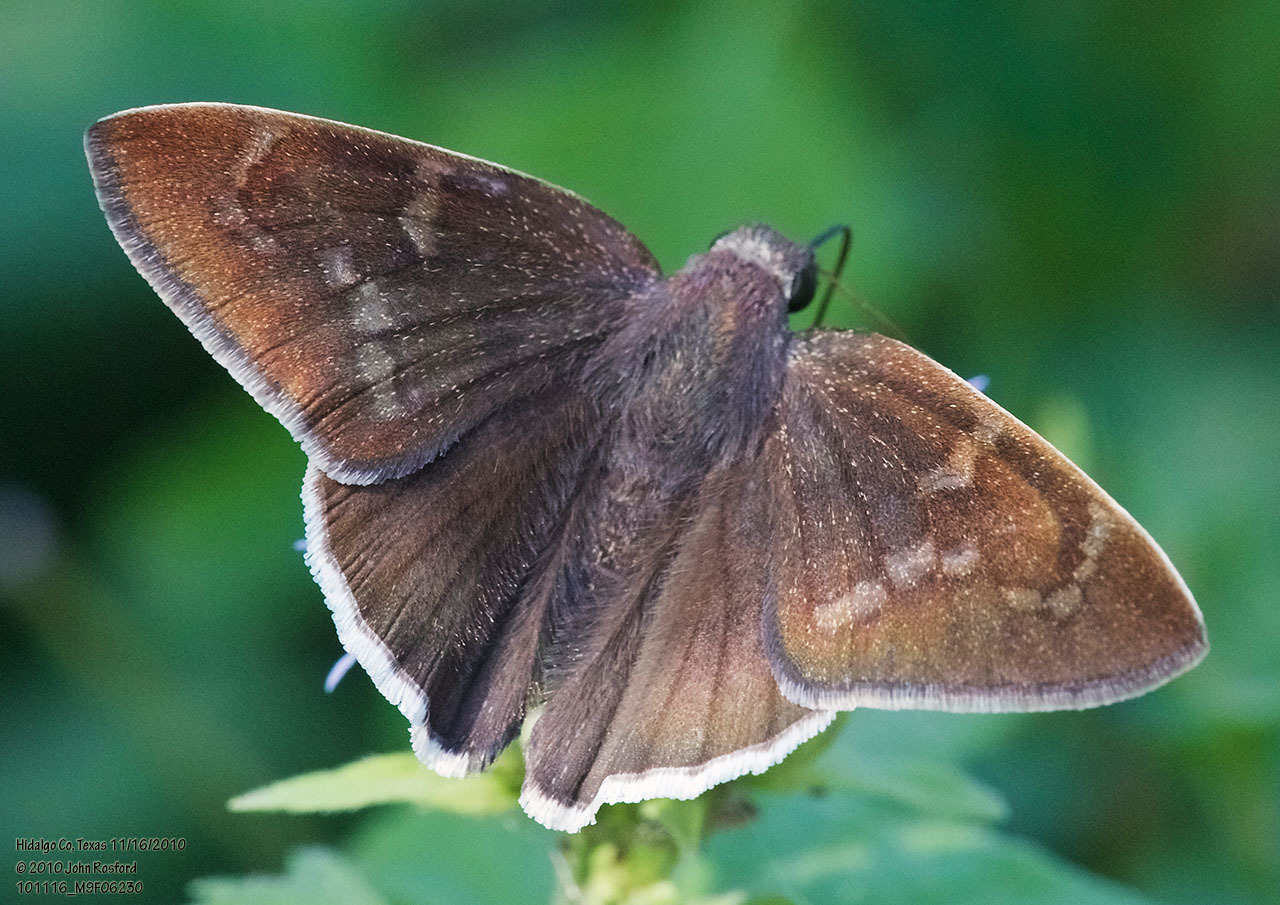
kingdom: Animalia
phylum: Arthropoda
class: Insecta
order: Lepidoptera
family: Hesperiidae
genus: Achalarus
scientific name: Achalarus Murgaria albociliatus
